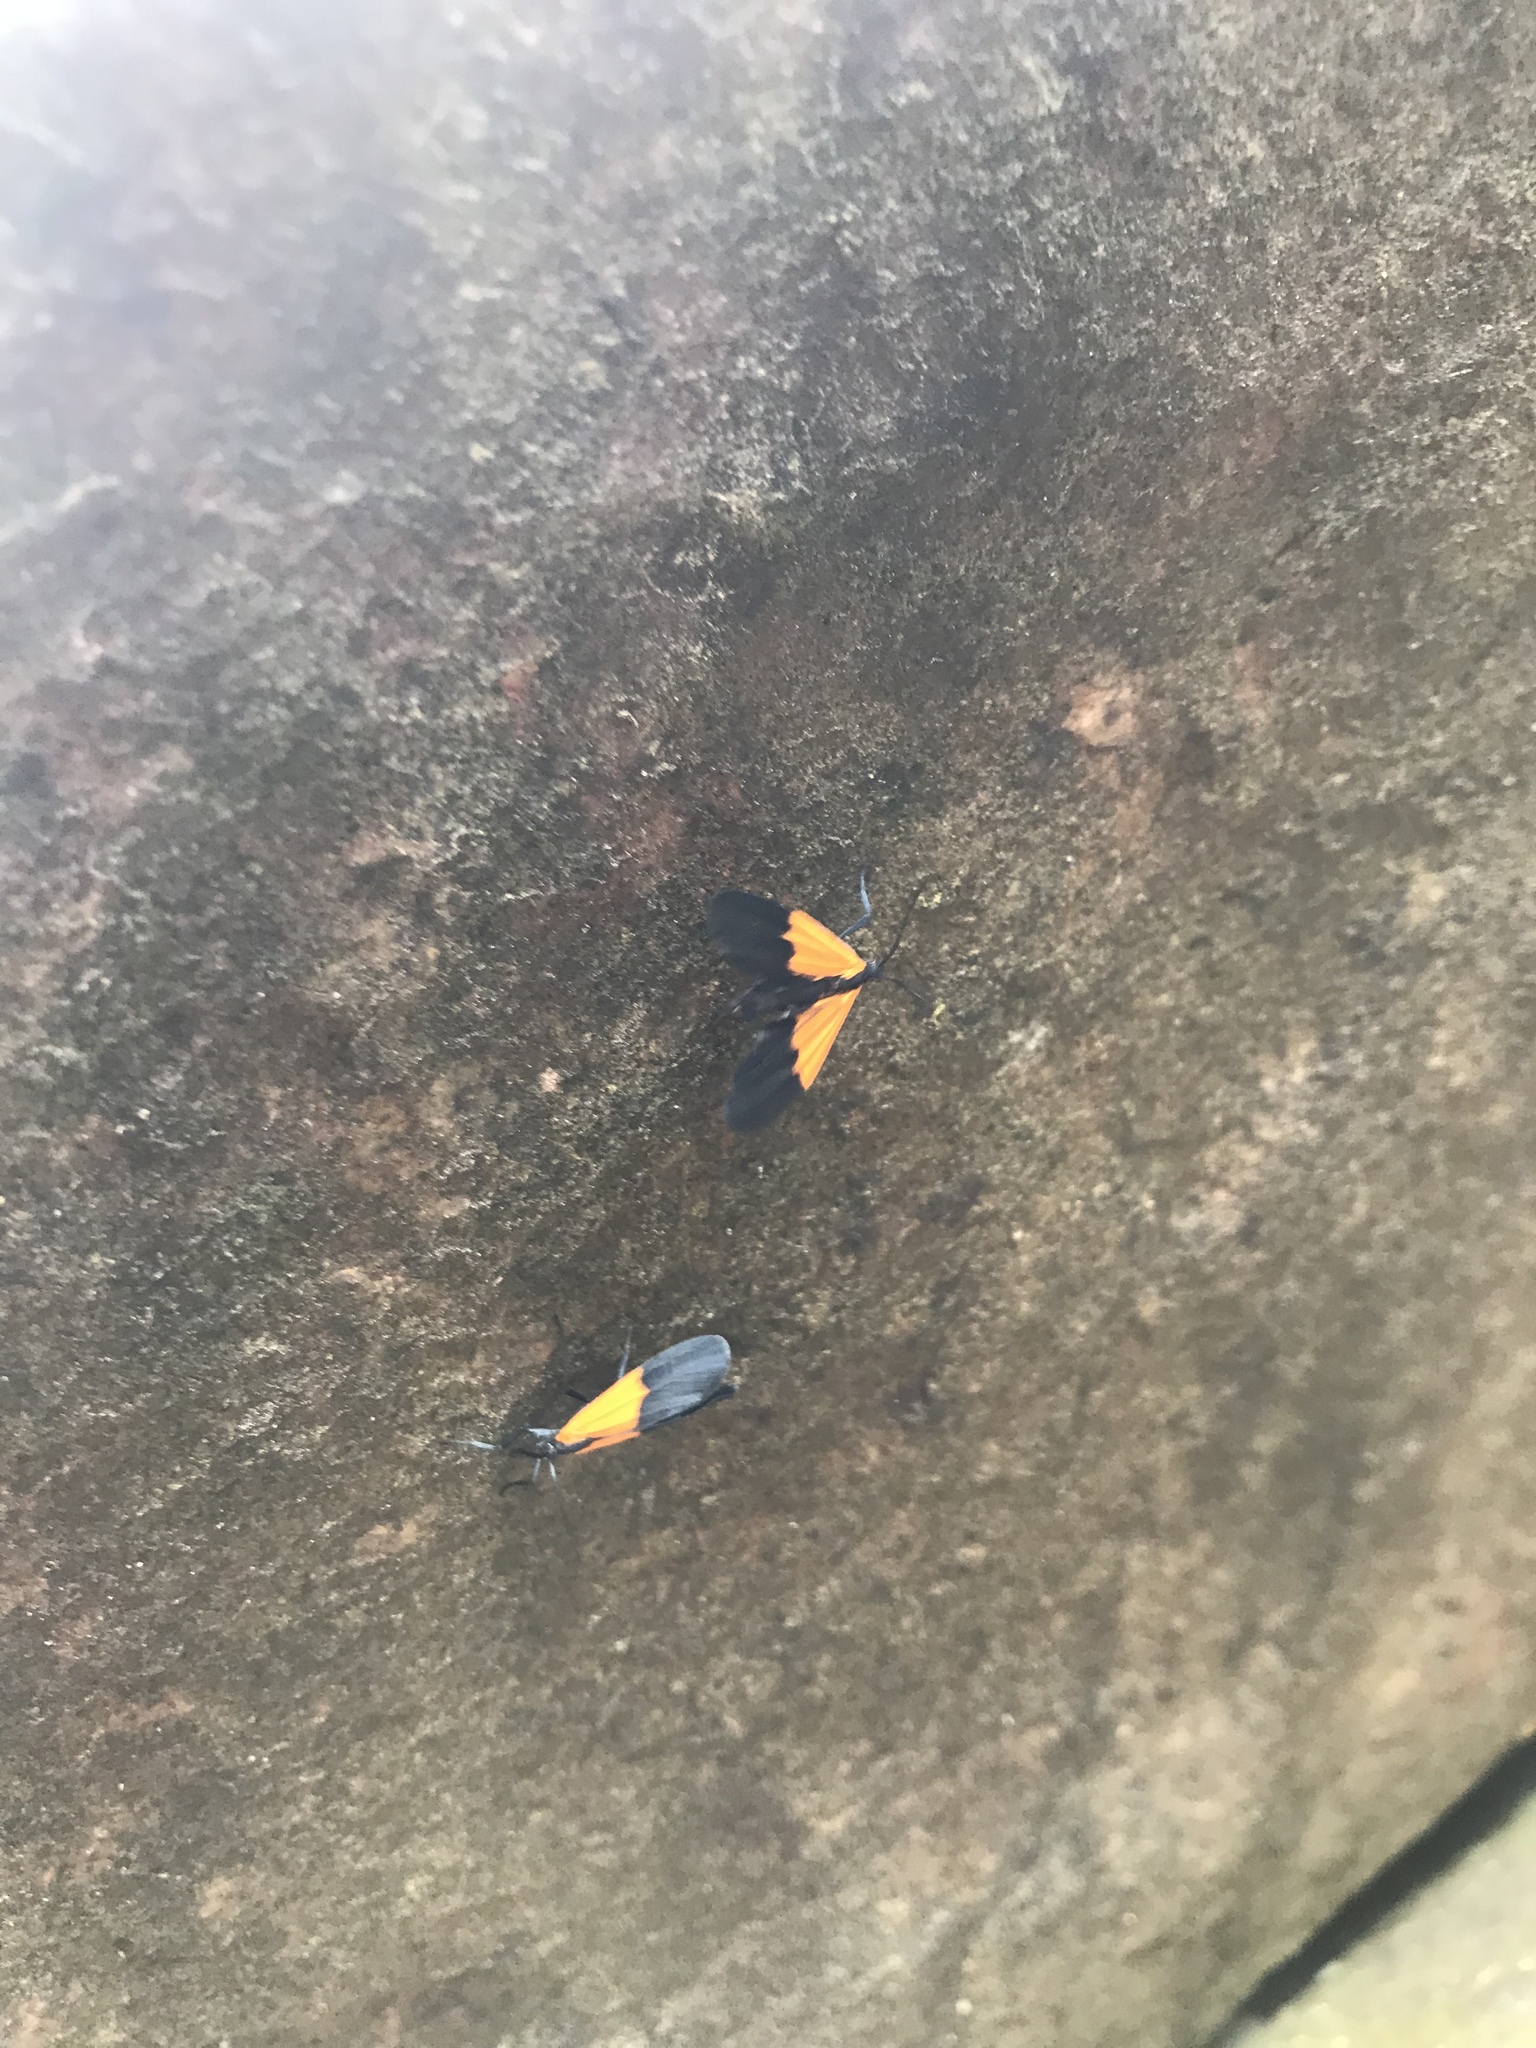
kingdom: Animalia
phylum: Arthropoda
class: Insecta
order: Lepidoptera
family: Erebidae
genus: Lycomorpha
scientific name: Lycomorpha pholus
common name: Black-and-yellow lichen moth
